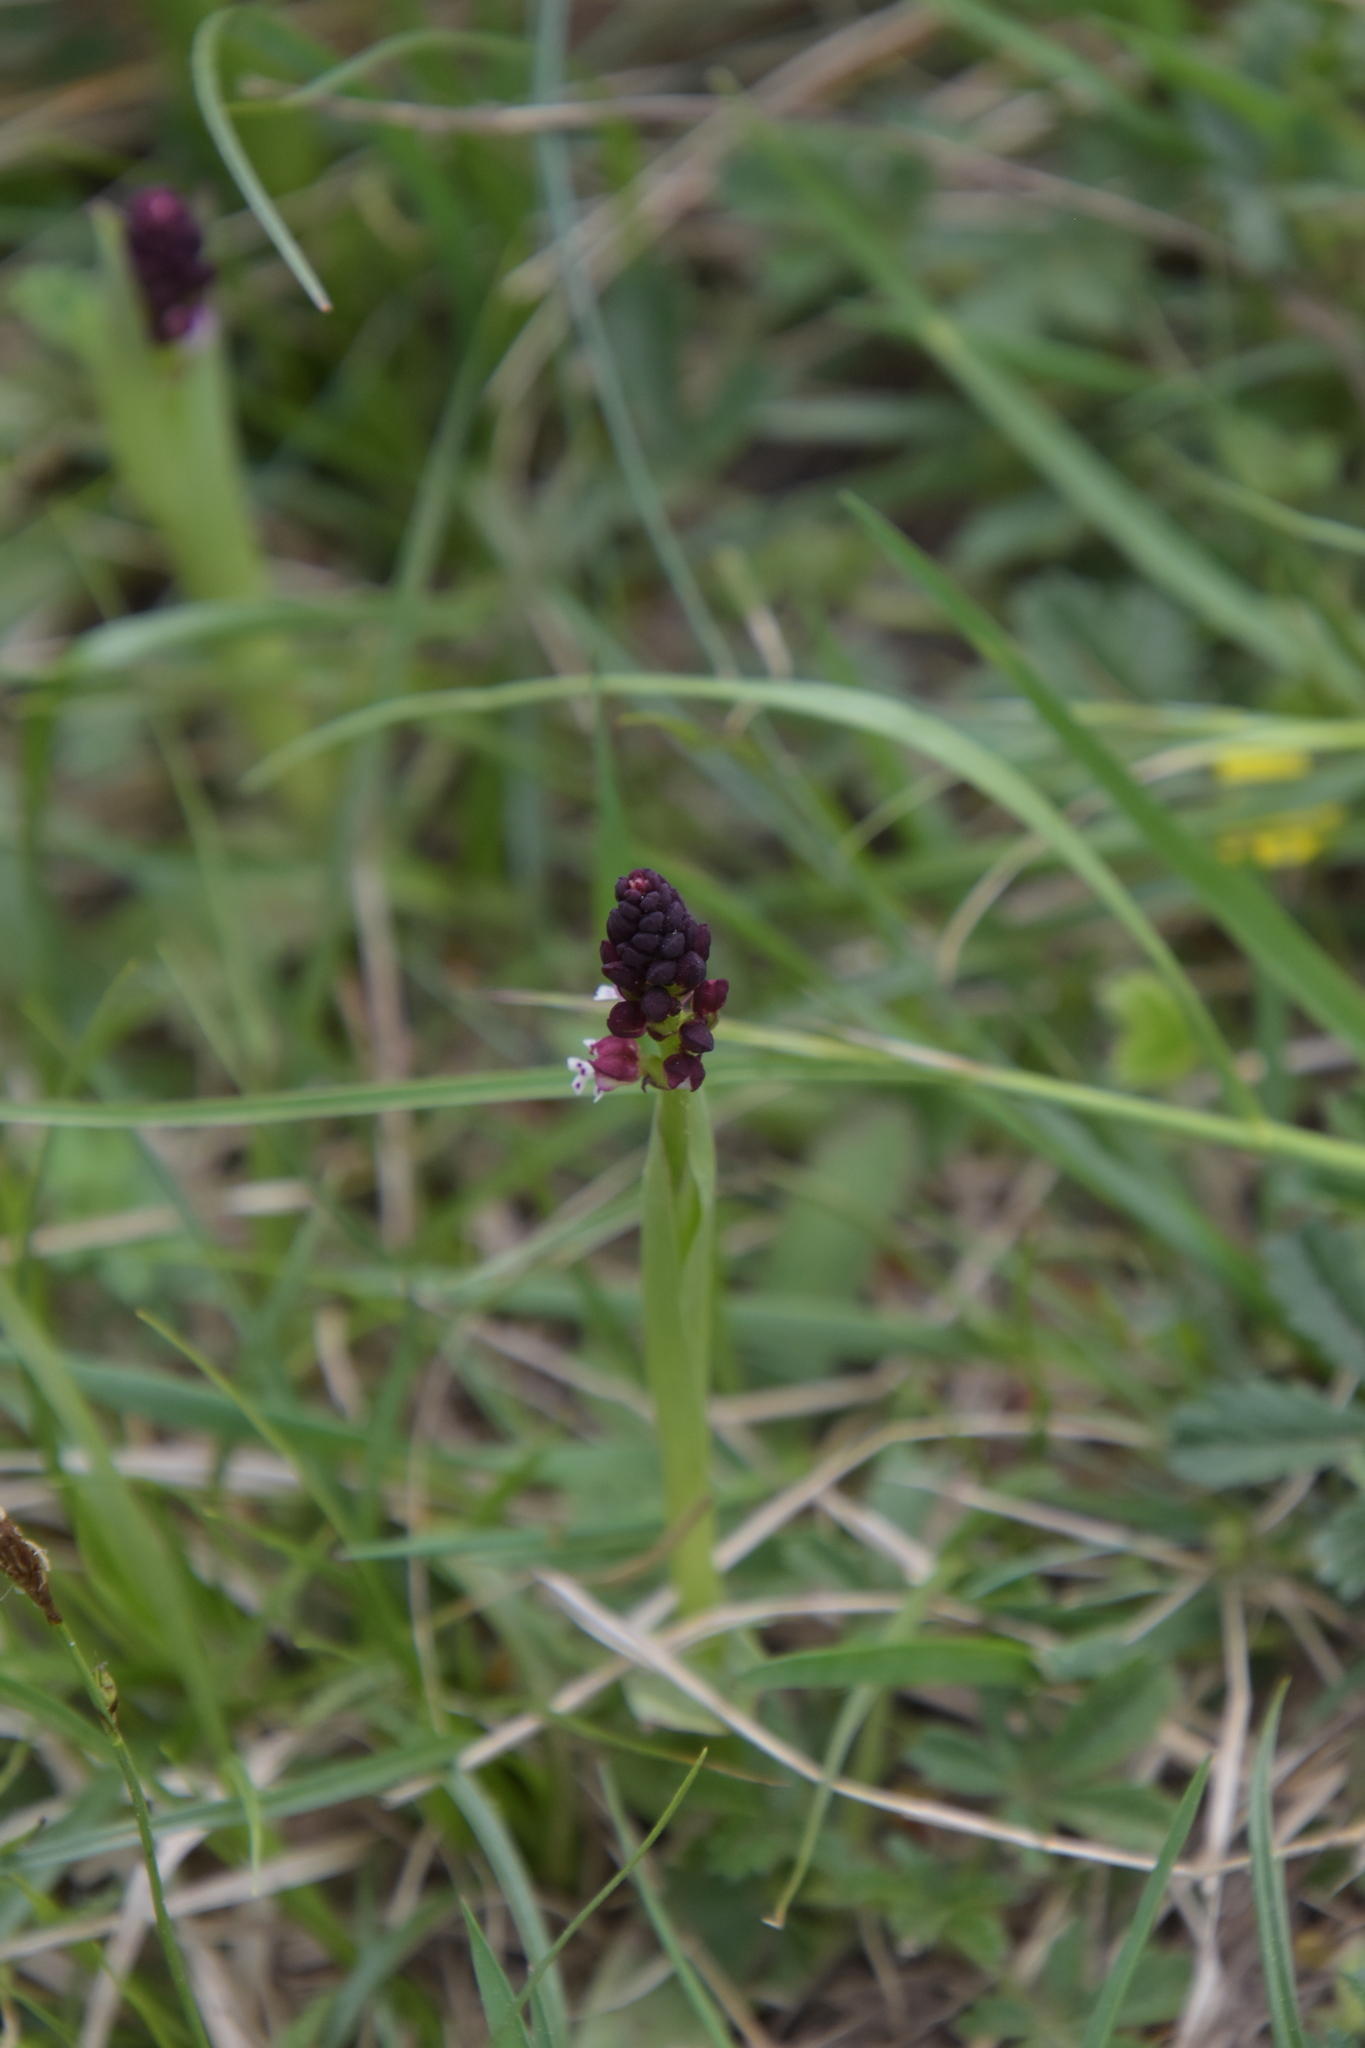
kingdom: Plantae
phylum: Tracheophyta
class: Liliopsida
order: Asparagales
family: Orchidaceae
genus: Neotinea
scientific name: Neotinea ustulata
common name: Burnt orchid
